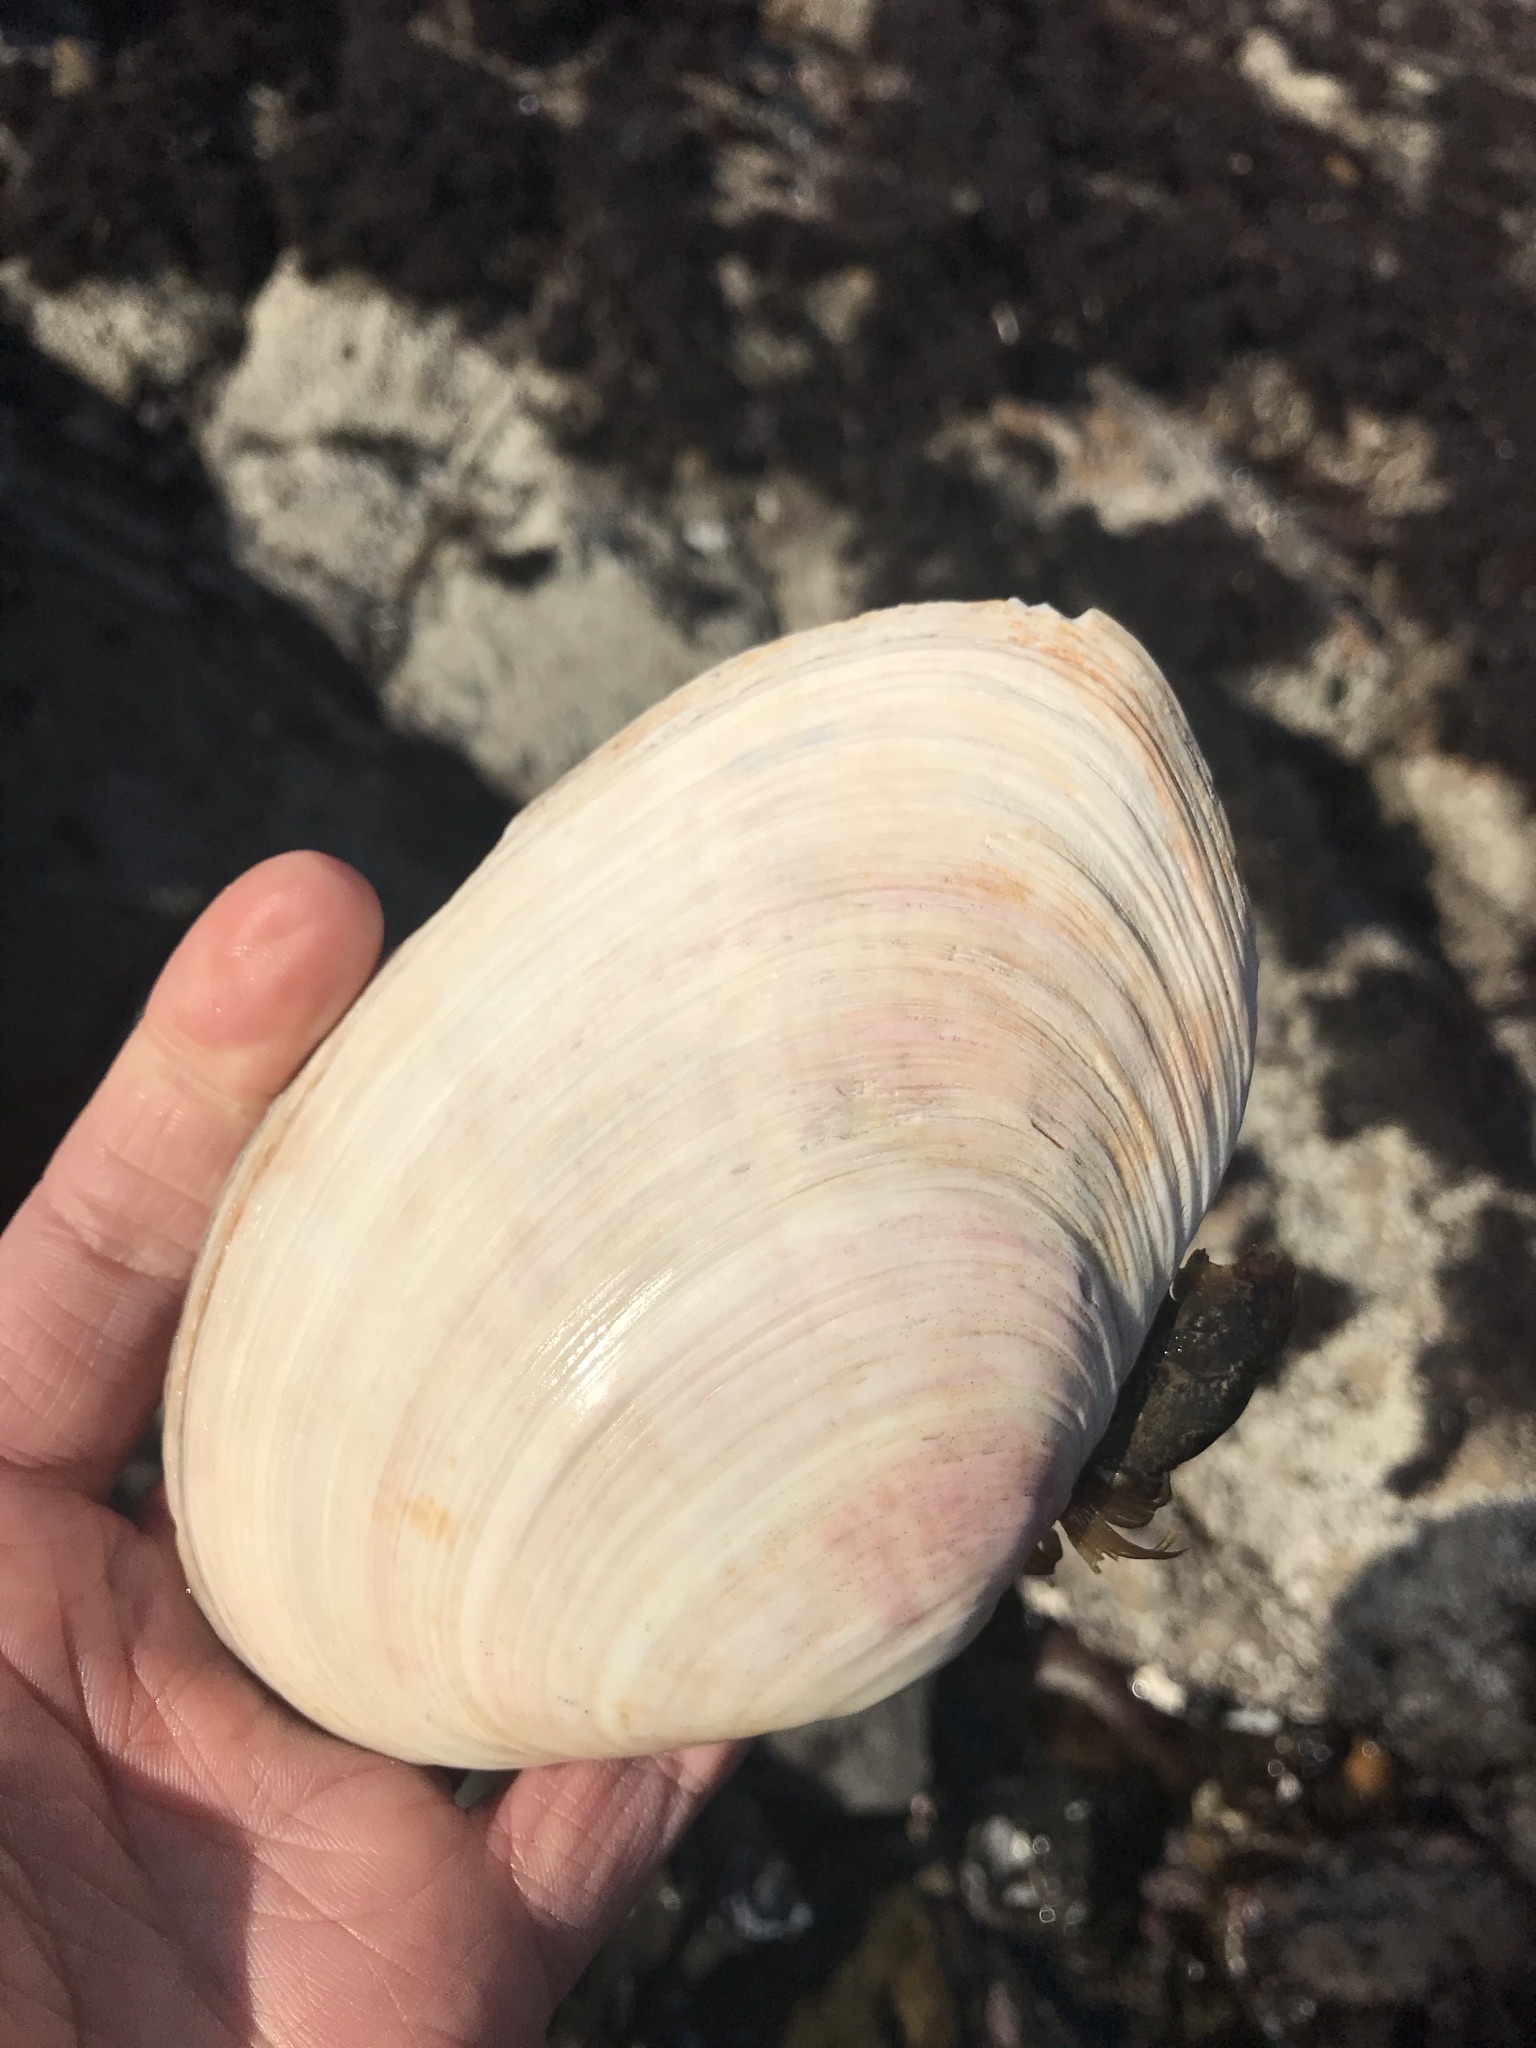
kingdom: Animalia
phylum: Mollusca
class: Bivalvia
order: Cardiida
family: Psammobiidae
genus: Gari
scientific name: Gari californica
